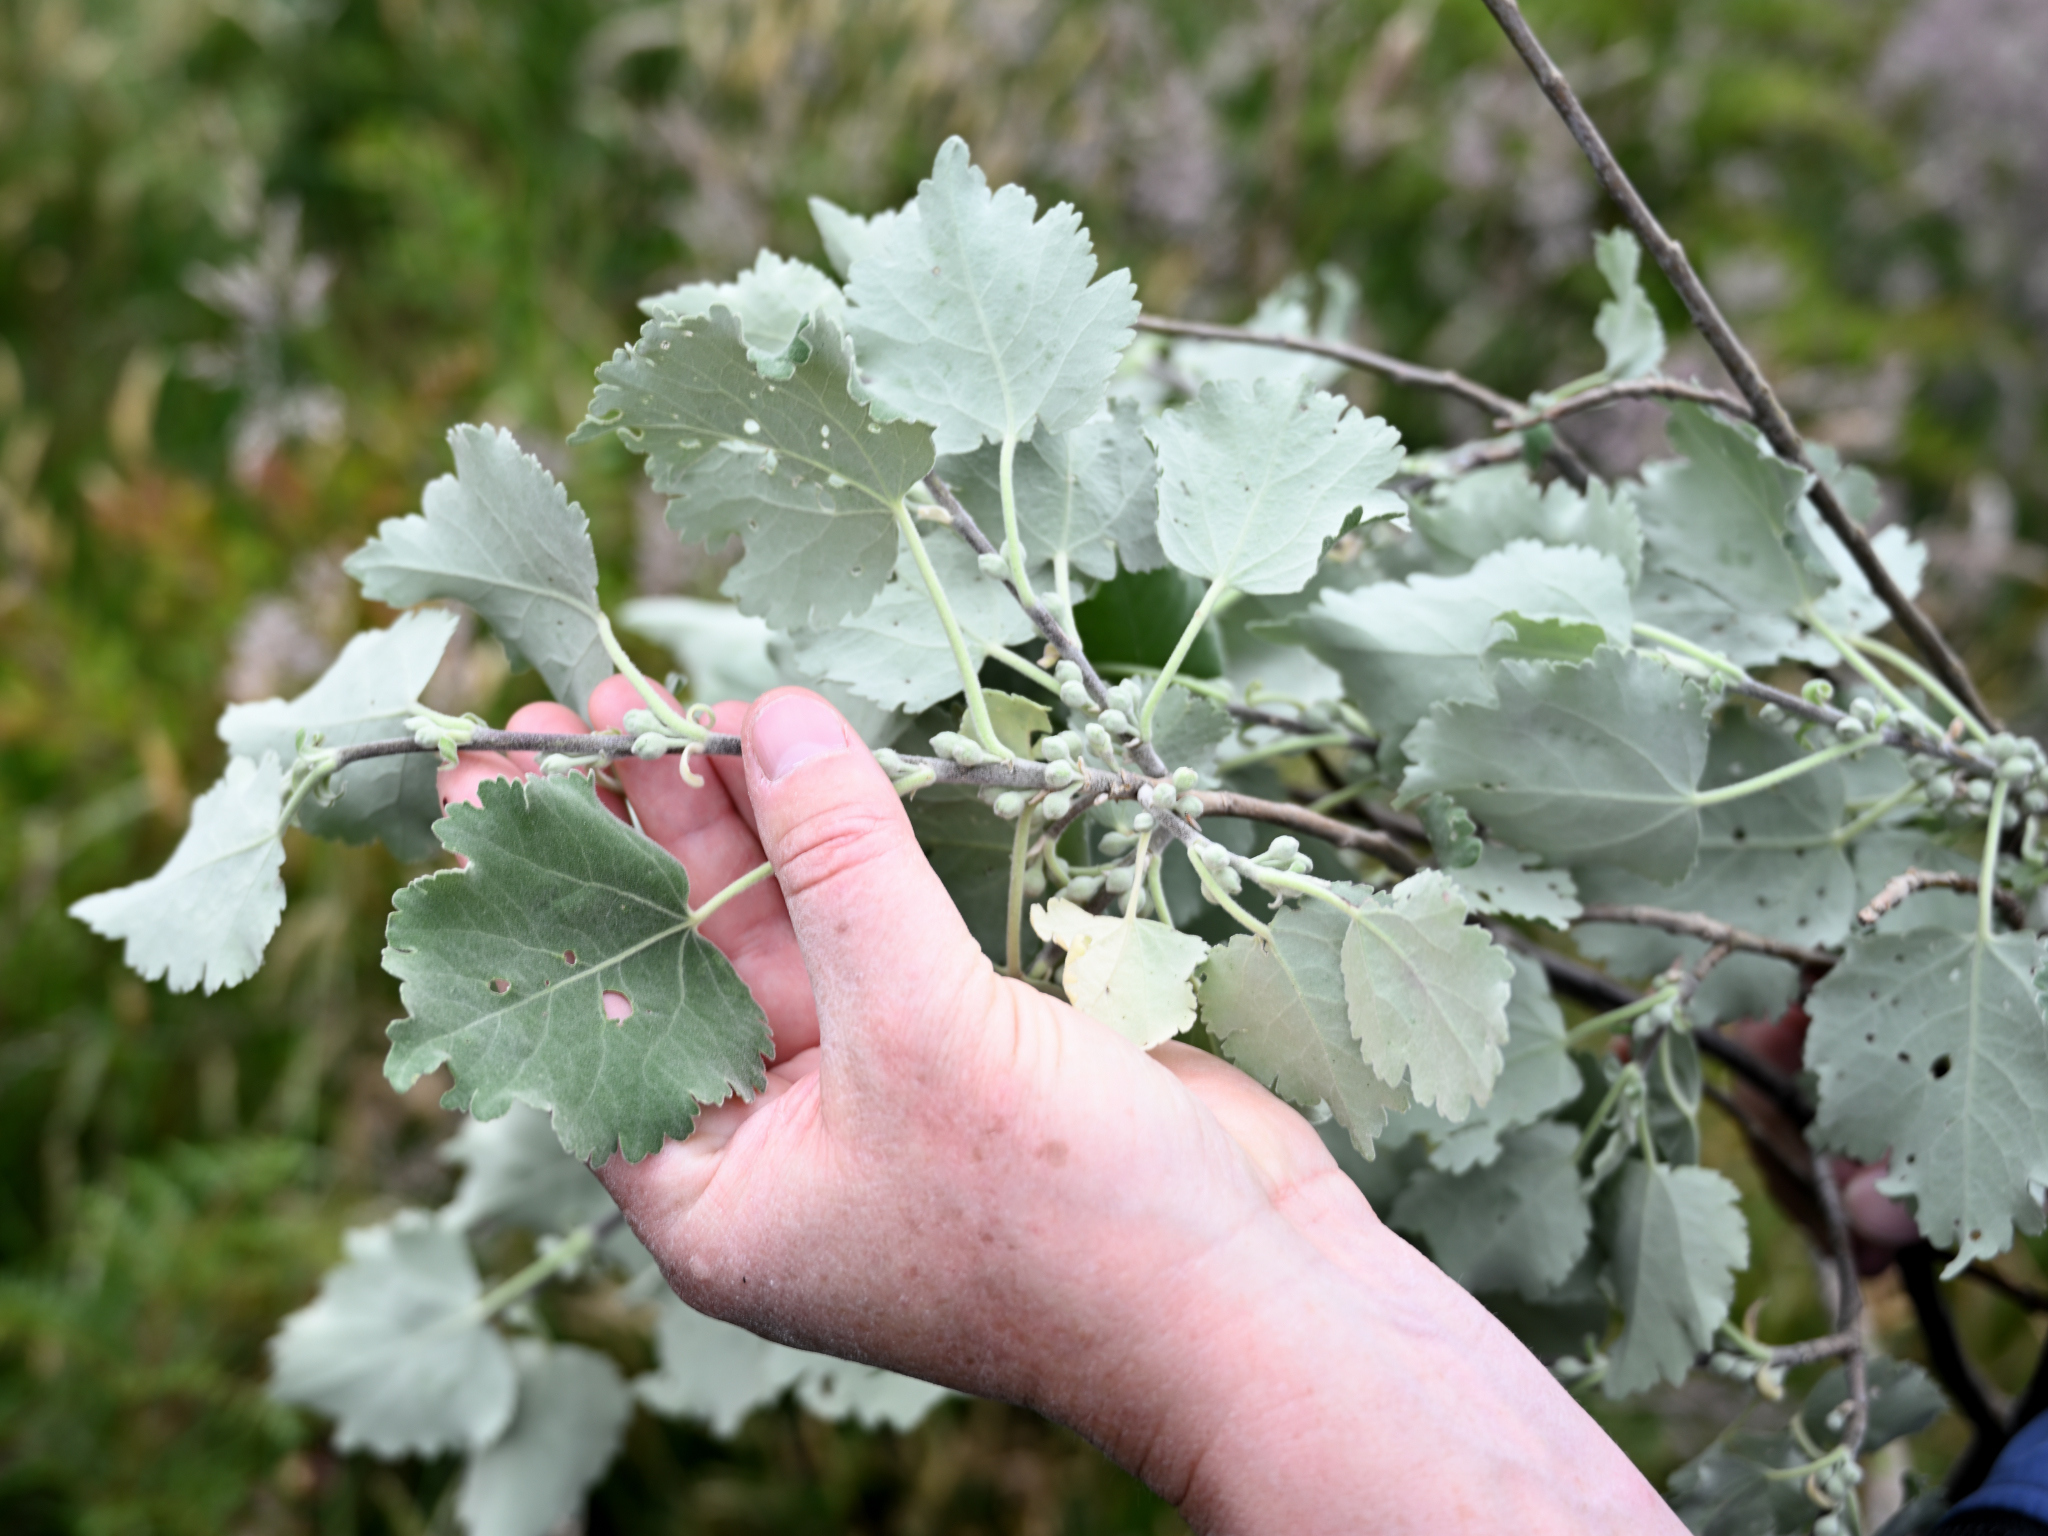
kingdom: Plantae
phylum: Tracheophyta
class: Magnoliopsida
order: Malvales
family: Malvaceae
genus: Hoheria
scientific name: Hoheria lyallii
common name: Lacebark
